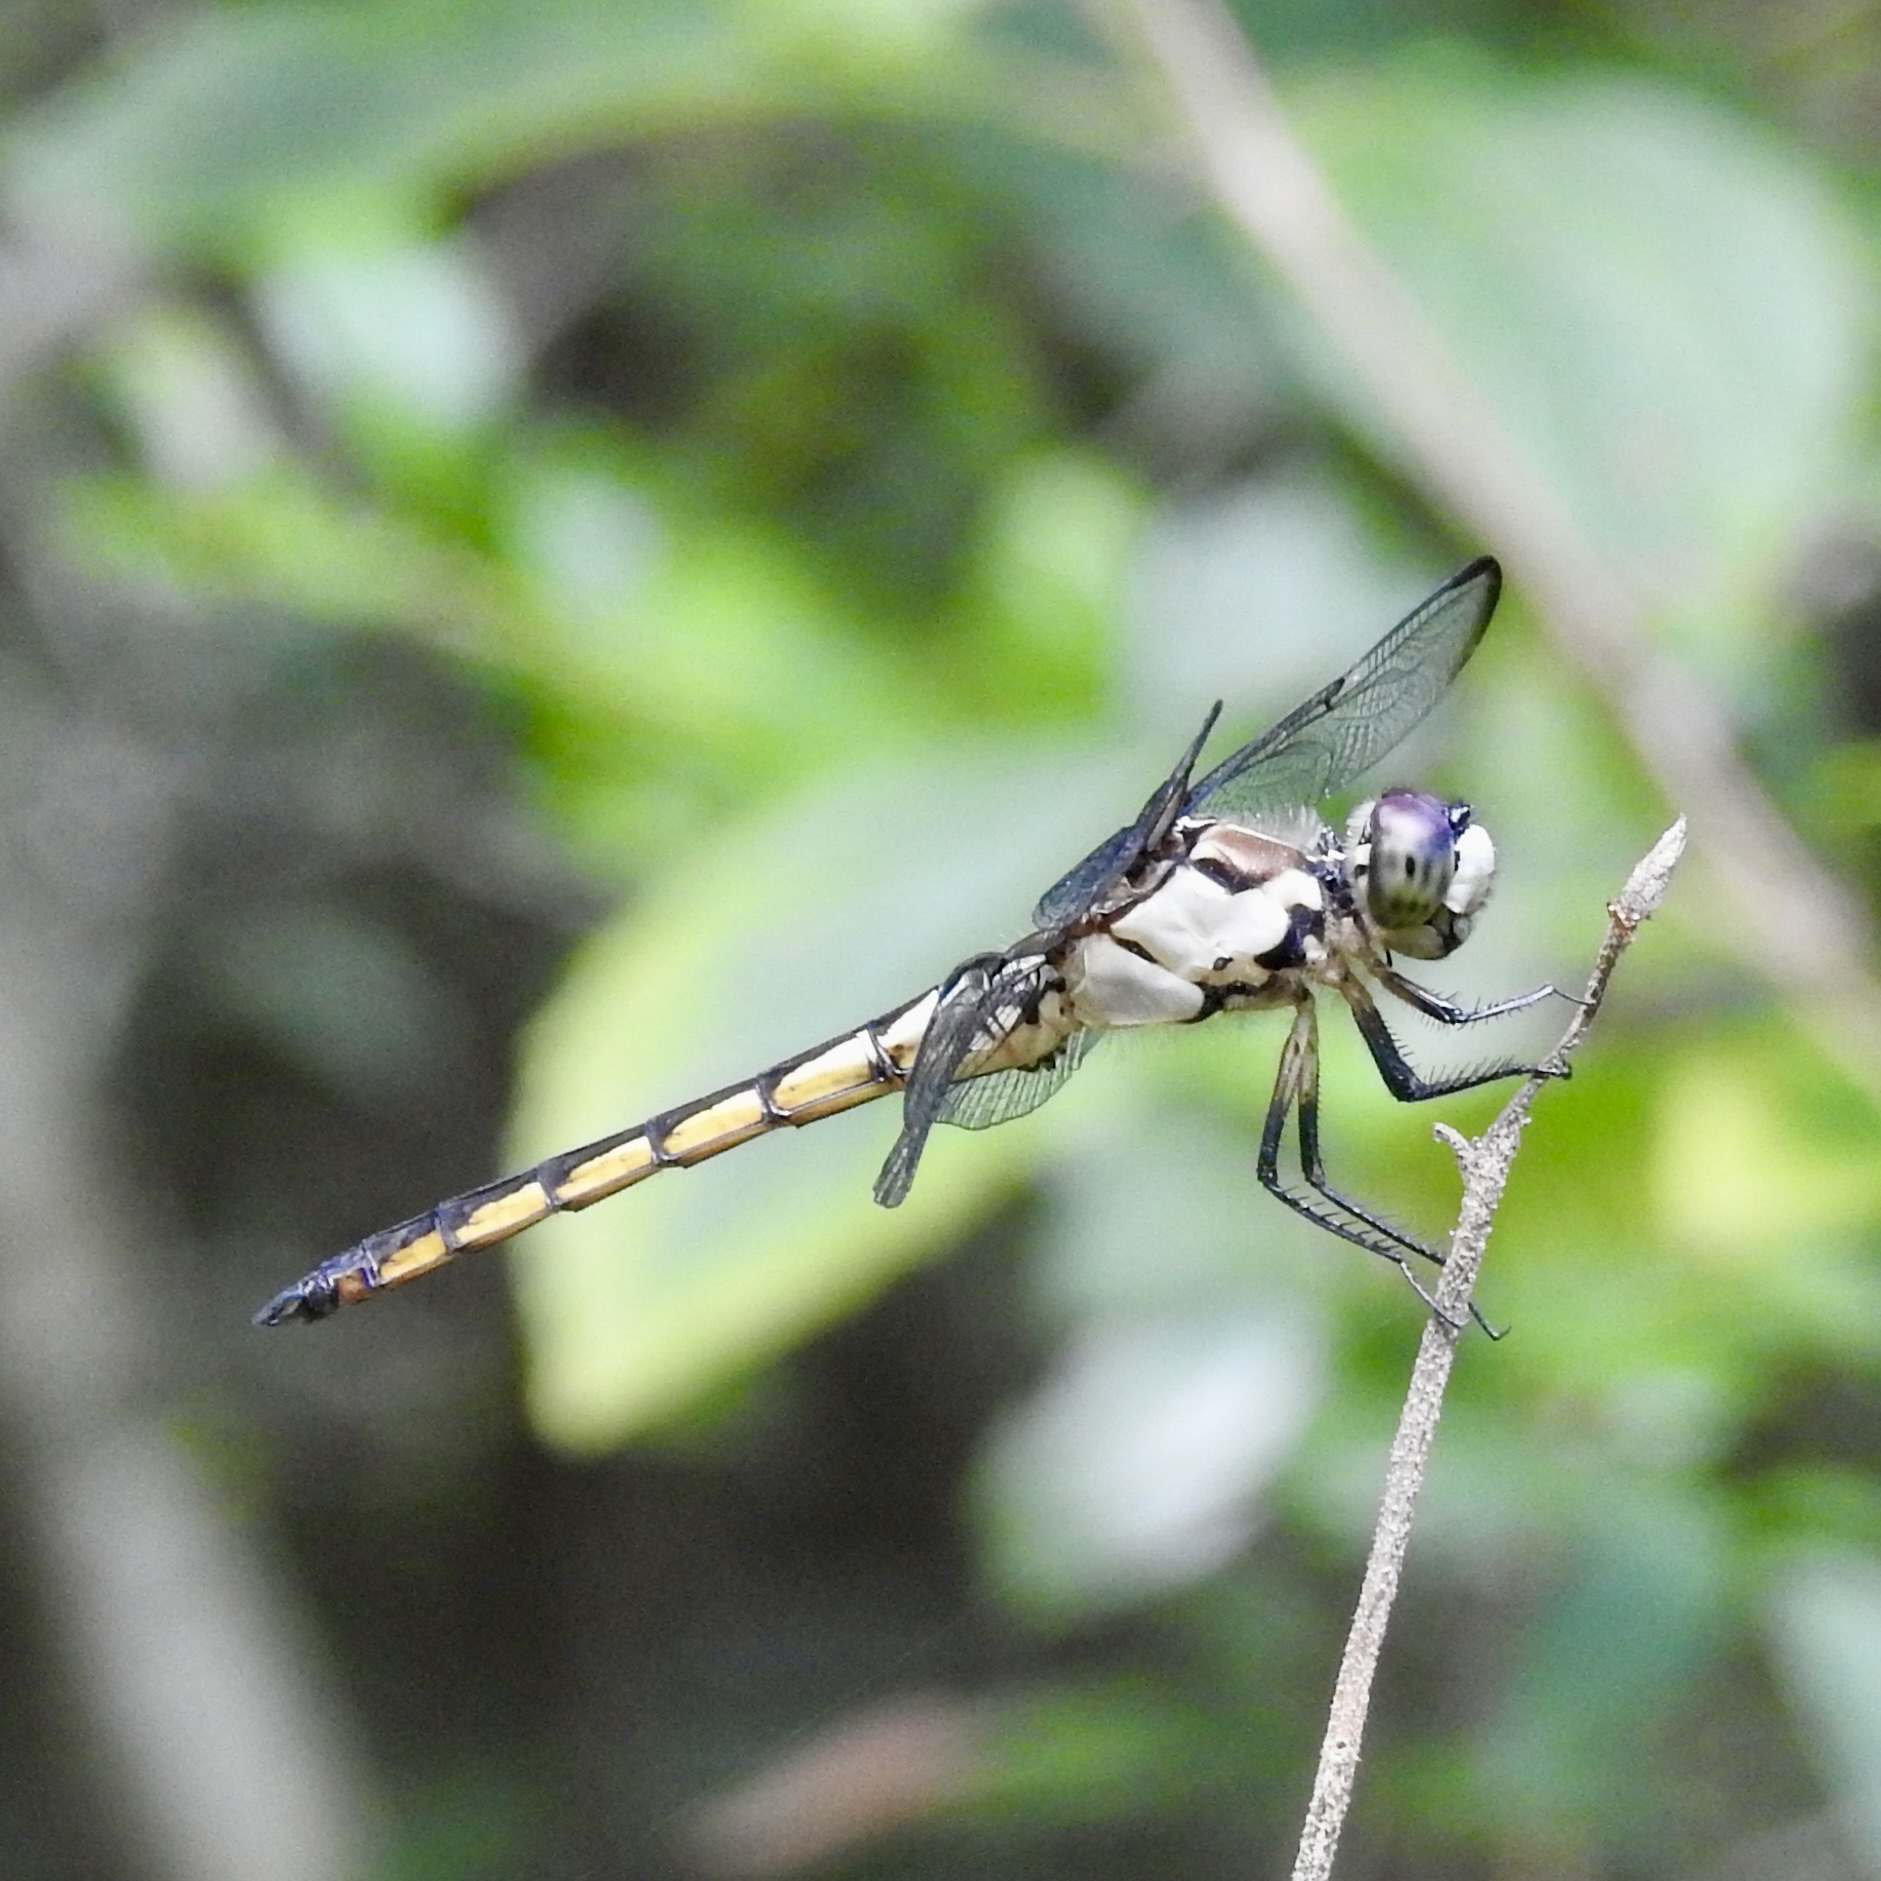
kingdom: Animalia
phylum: Arthropoda
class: Insecta
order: Odonata
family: Libellulidae
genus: Libellula
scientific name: Libellula vibrans
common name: Great blue skimmer
